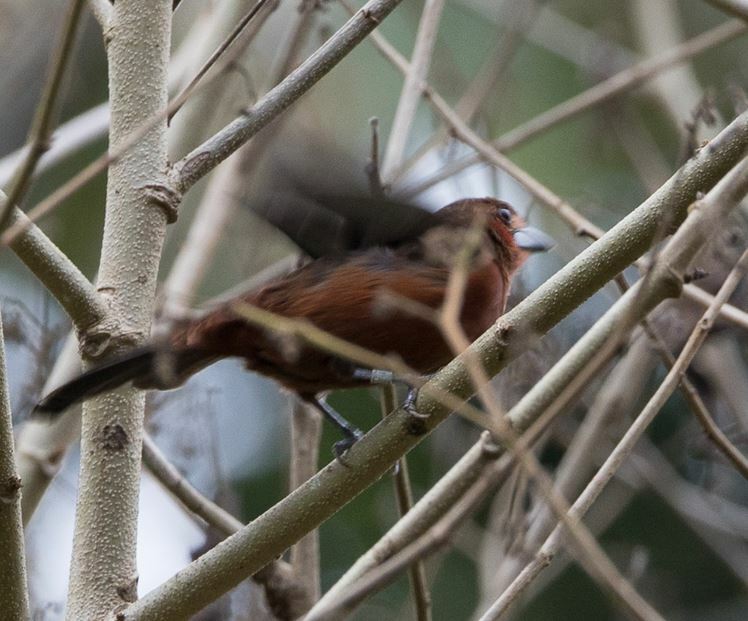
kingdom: Animalia
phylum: Chordata
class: Aves
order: Passeriformes
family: Thraupidae
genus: Ramphocelus
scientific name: Ramphocelus carbo
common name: Silver-beaked tanager
